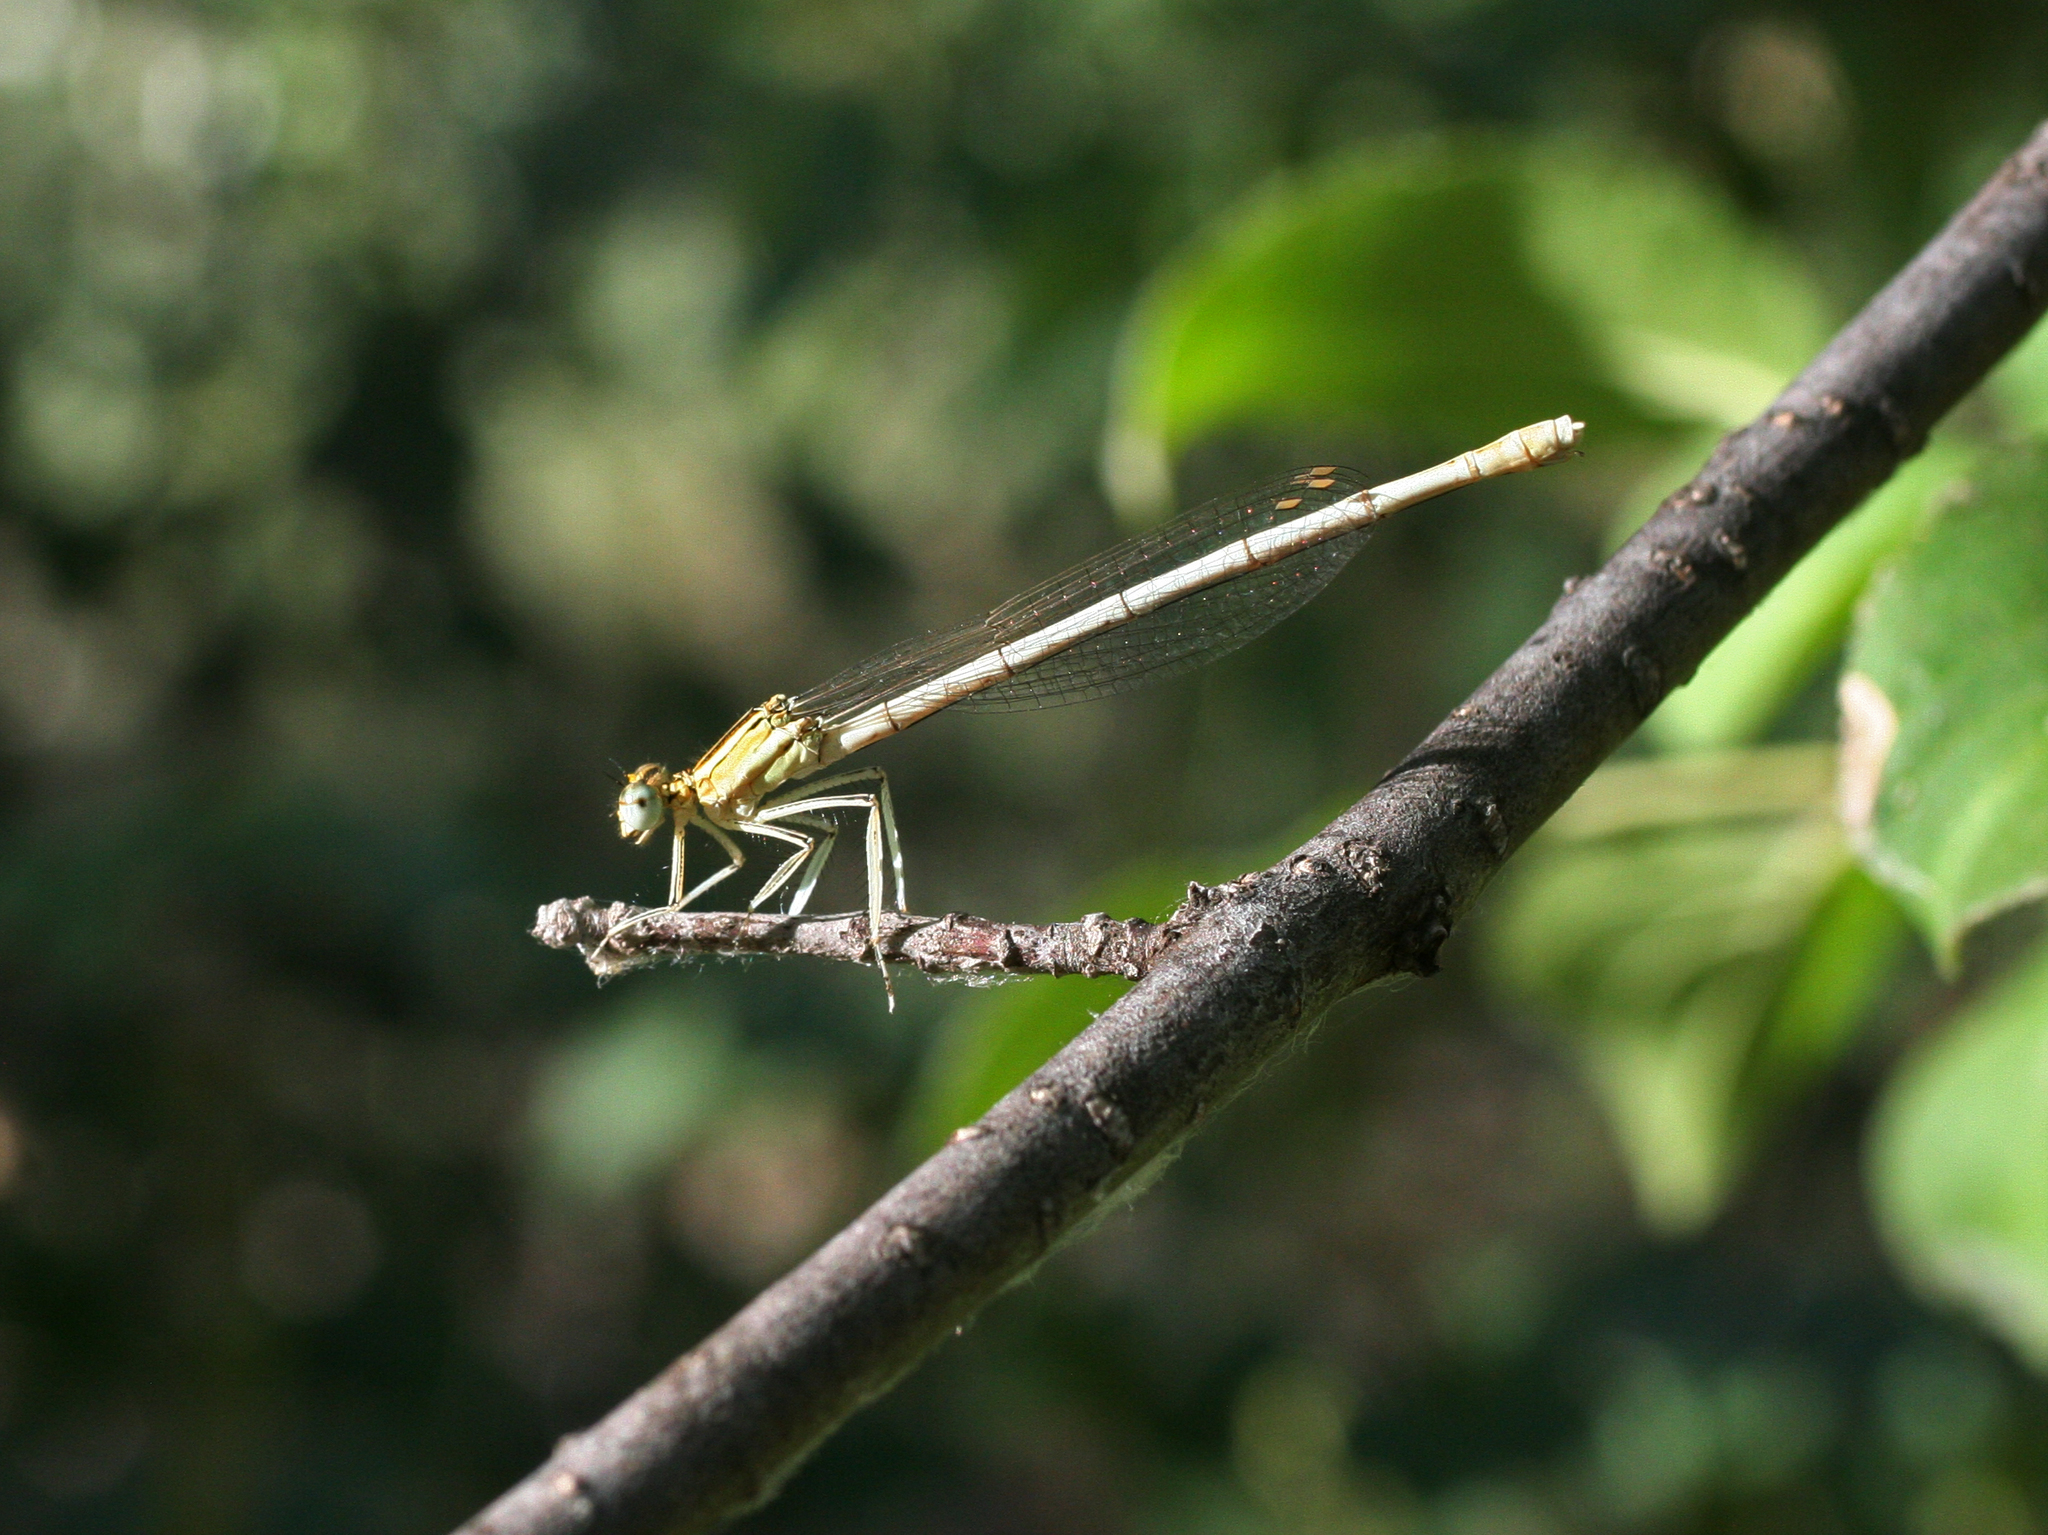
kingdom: Animalia
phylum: Arthropoda
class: Insecta
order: Odonata
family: Platycnemididae
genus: Platycnemis
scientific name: Platycnemis pennipes
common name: White-legged damselfly
